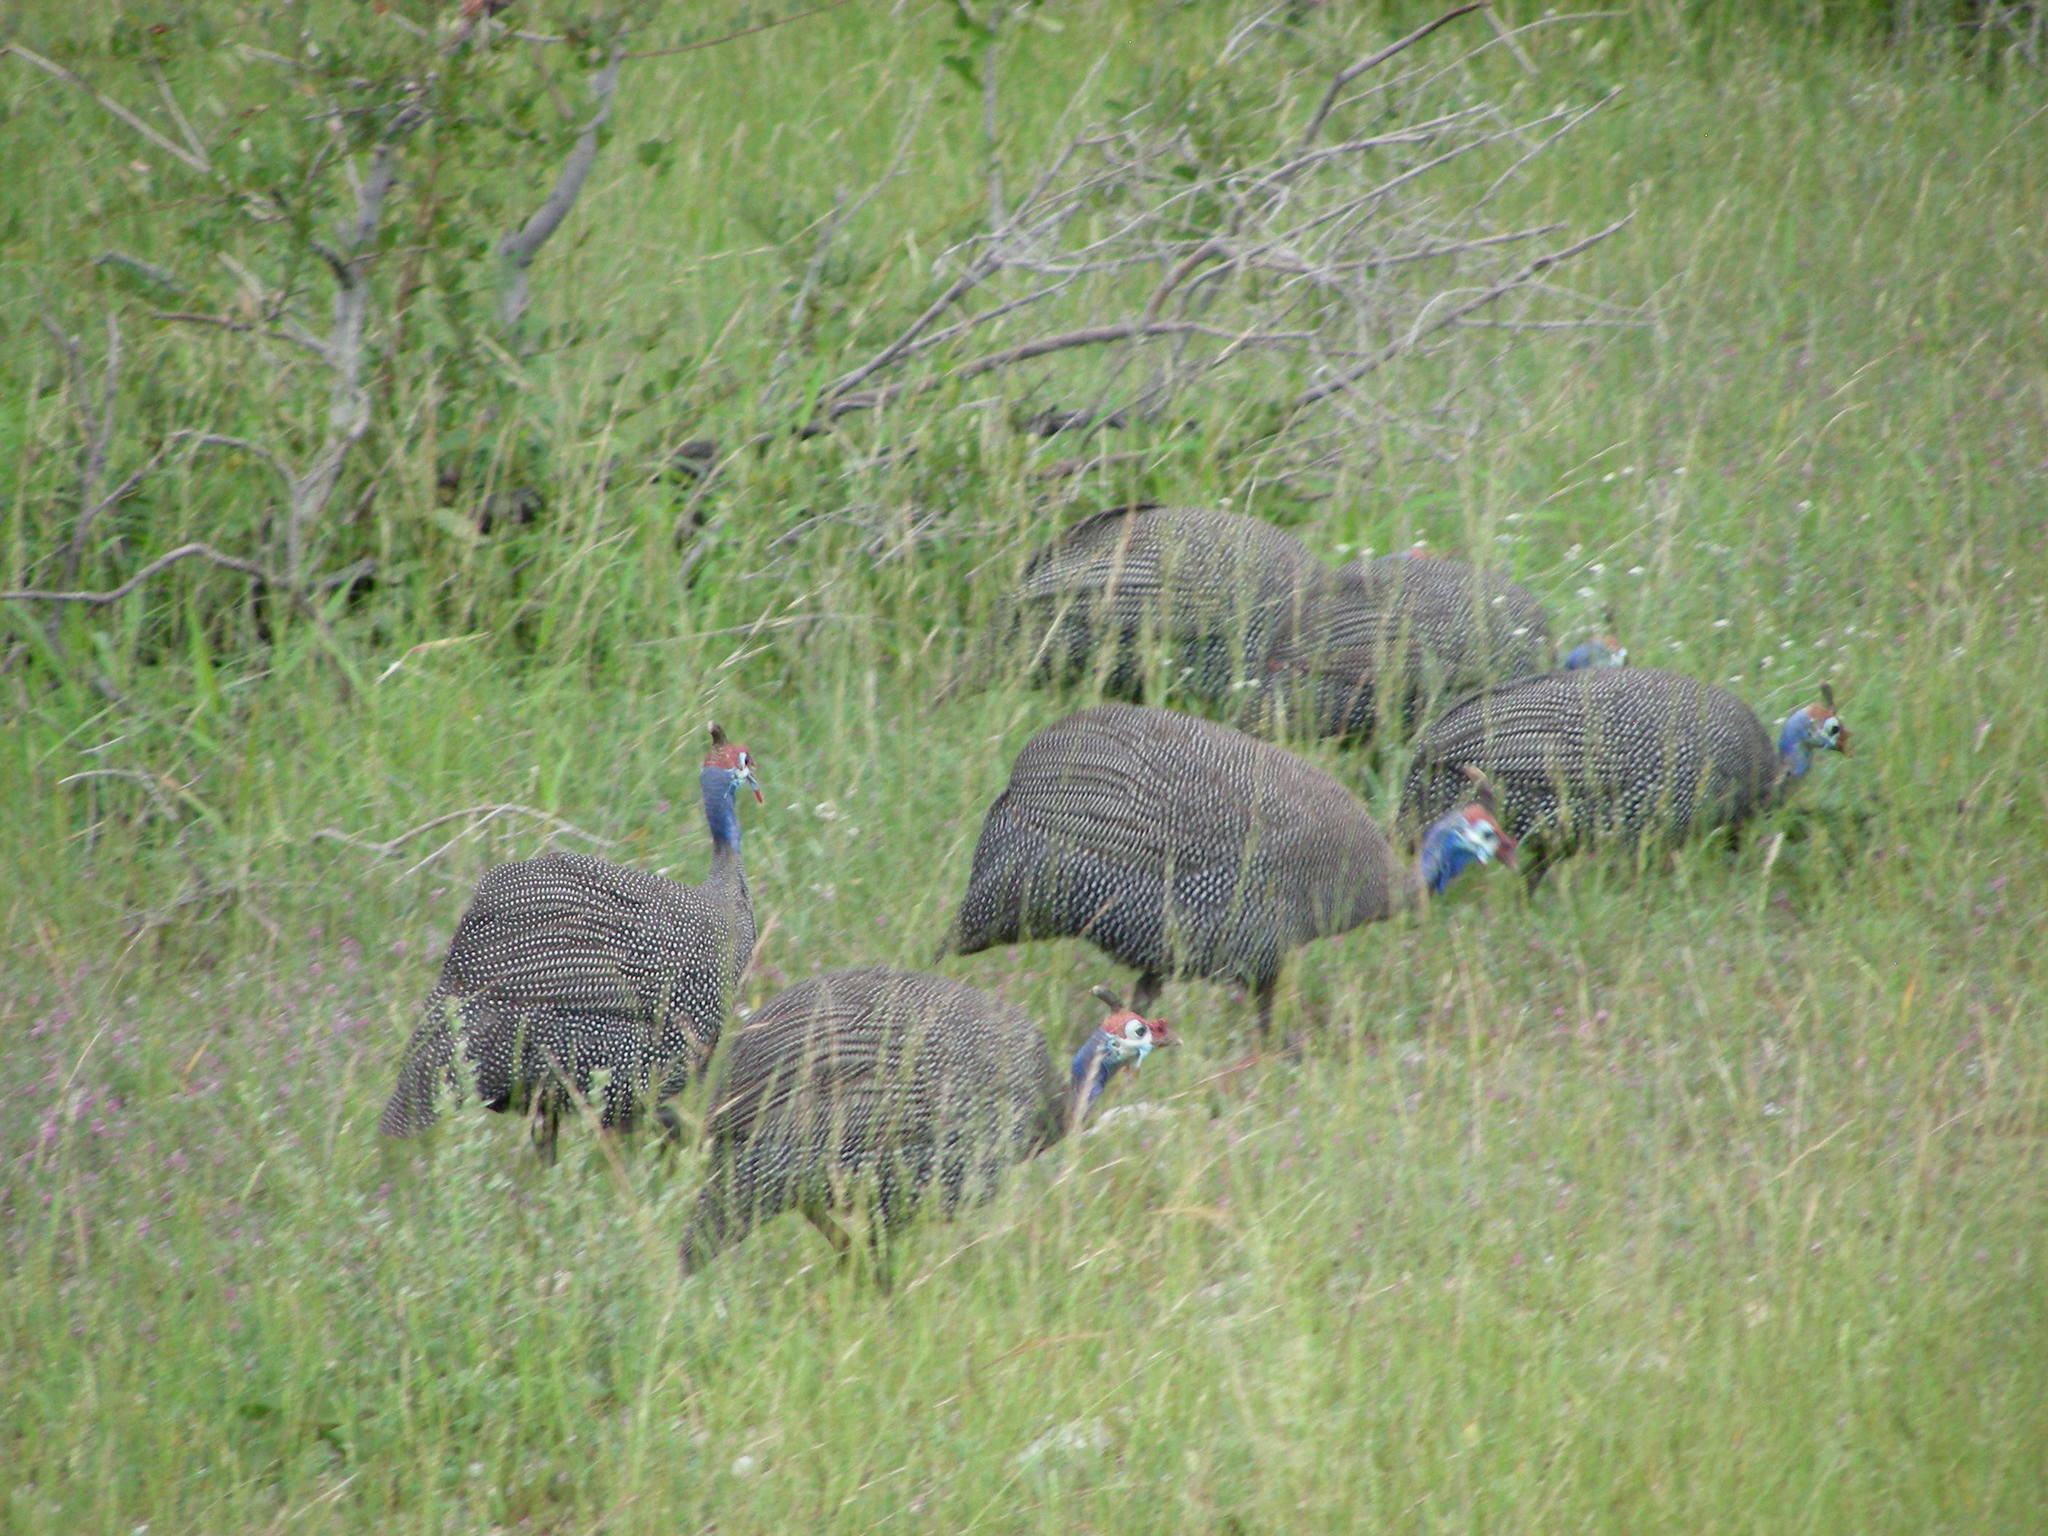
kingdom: Animalia
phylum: Chordata
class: Aves
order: Galliformes
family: Numididae
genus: Numida
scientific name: Numida meleagris
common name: Helmeted guineafowl
